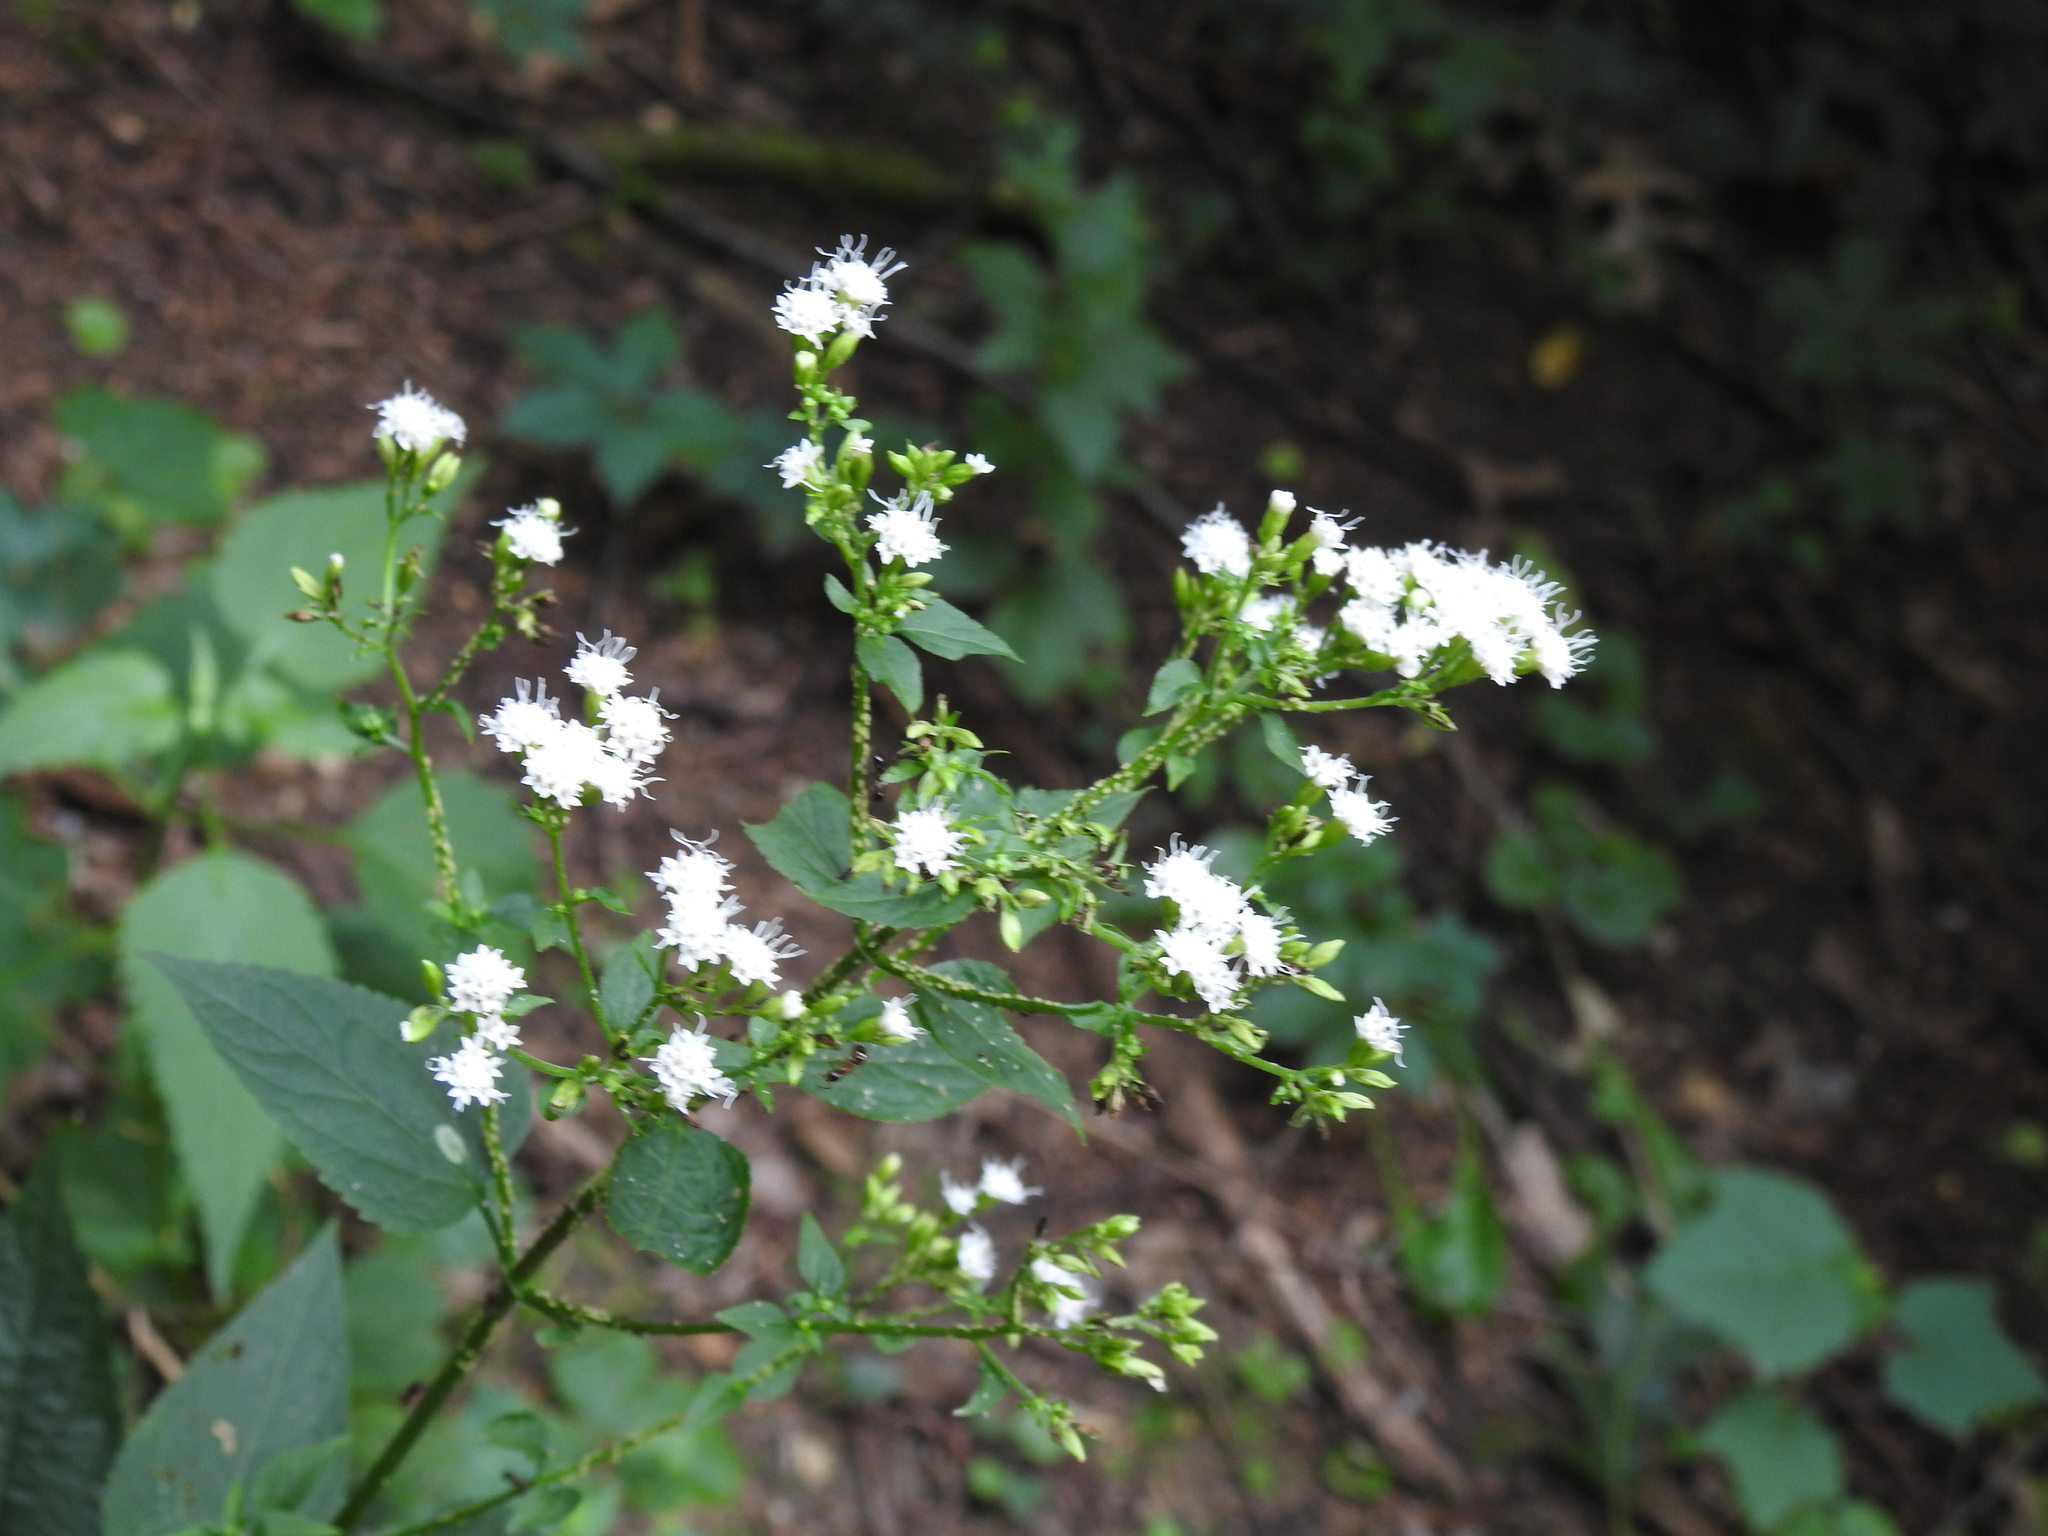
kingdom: Plantae
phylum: Tracheophyta
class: Magnoliopsida
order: Asterales
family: Asteraceae
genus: Ageratina
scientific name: Ageratina altissima
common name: White snakeroot
